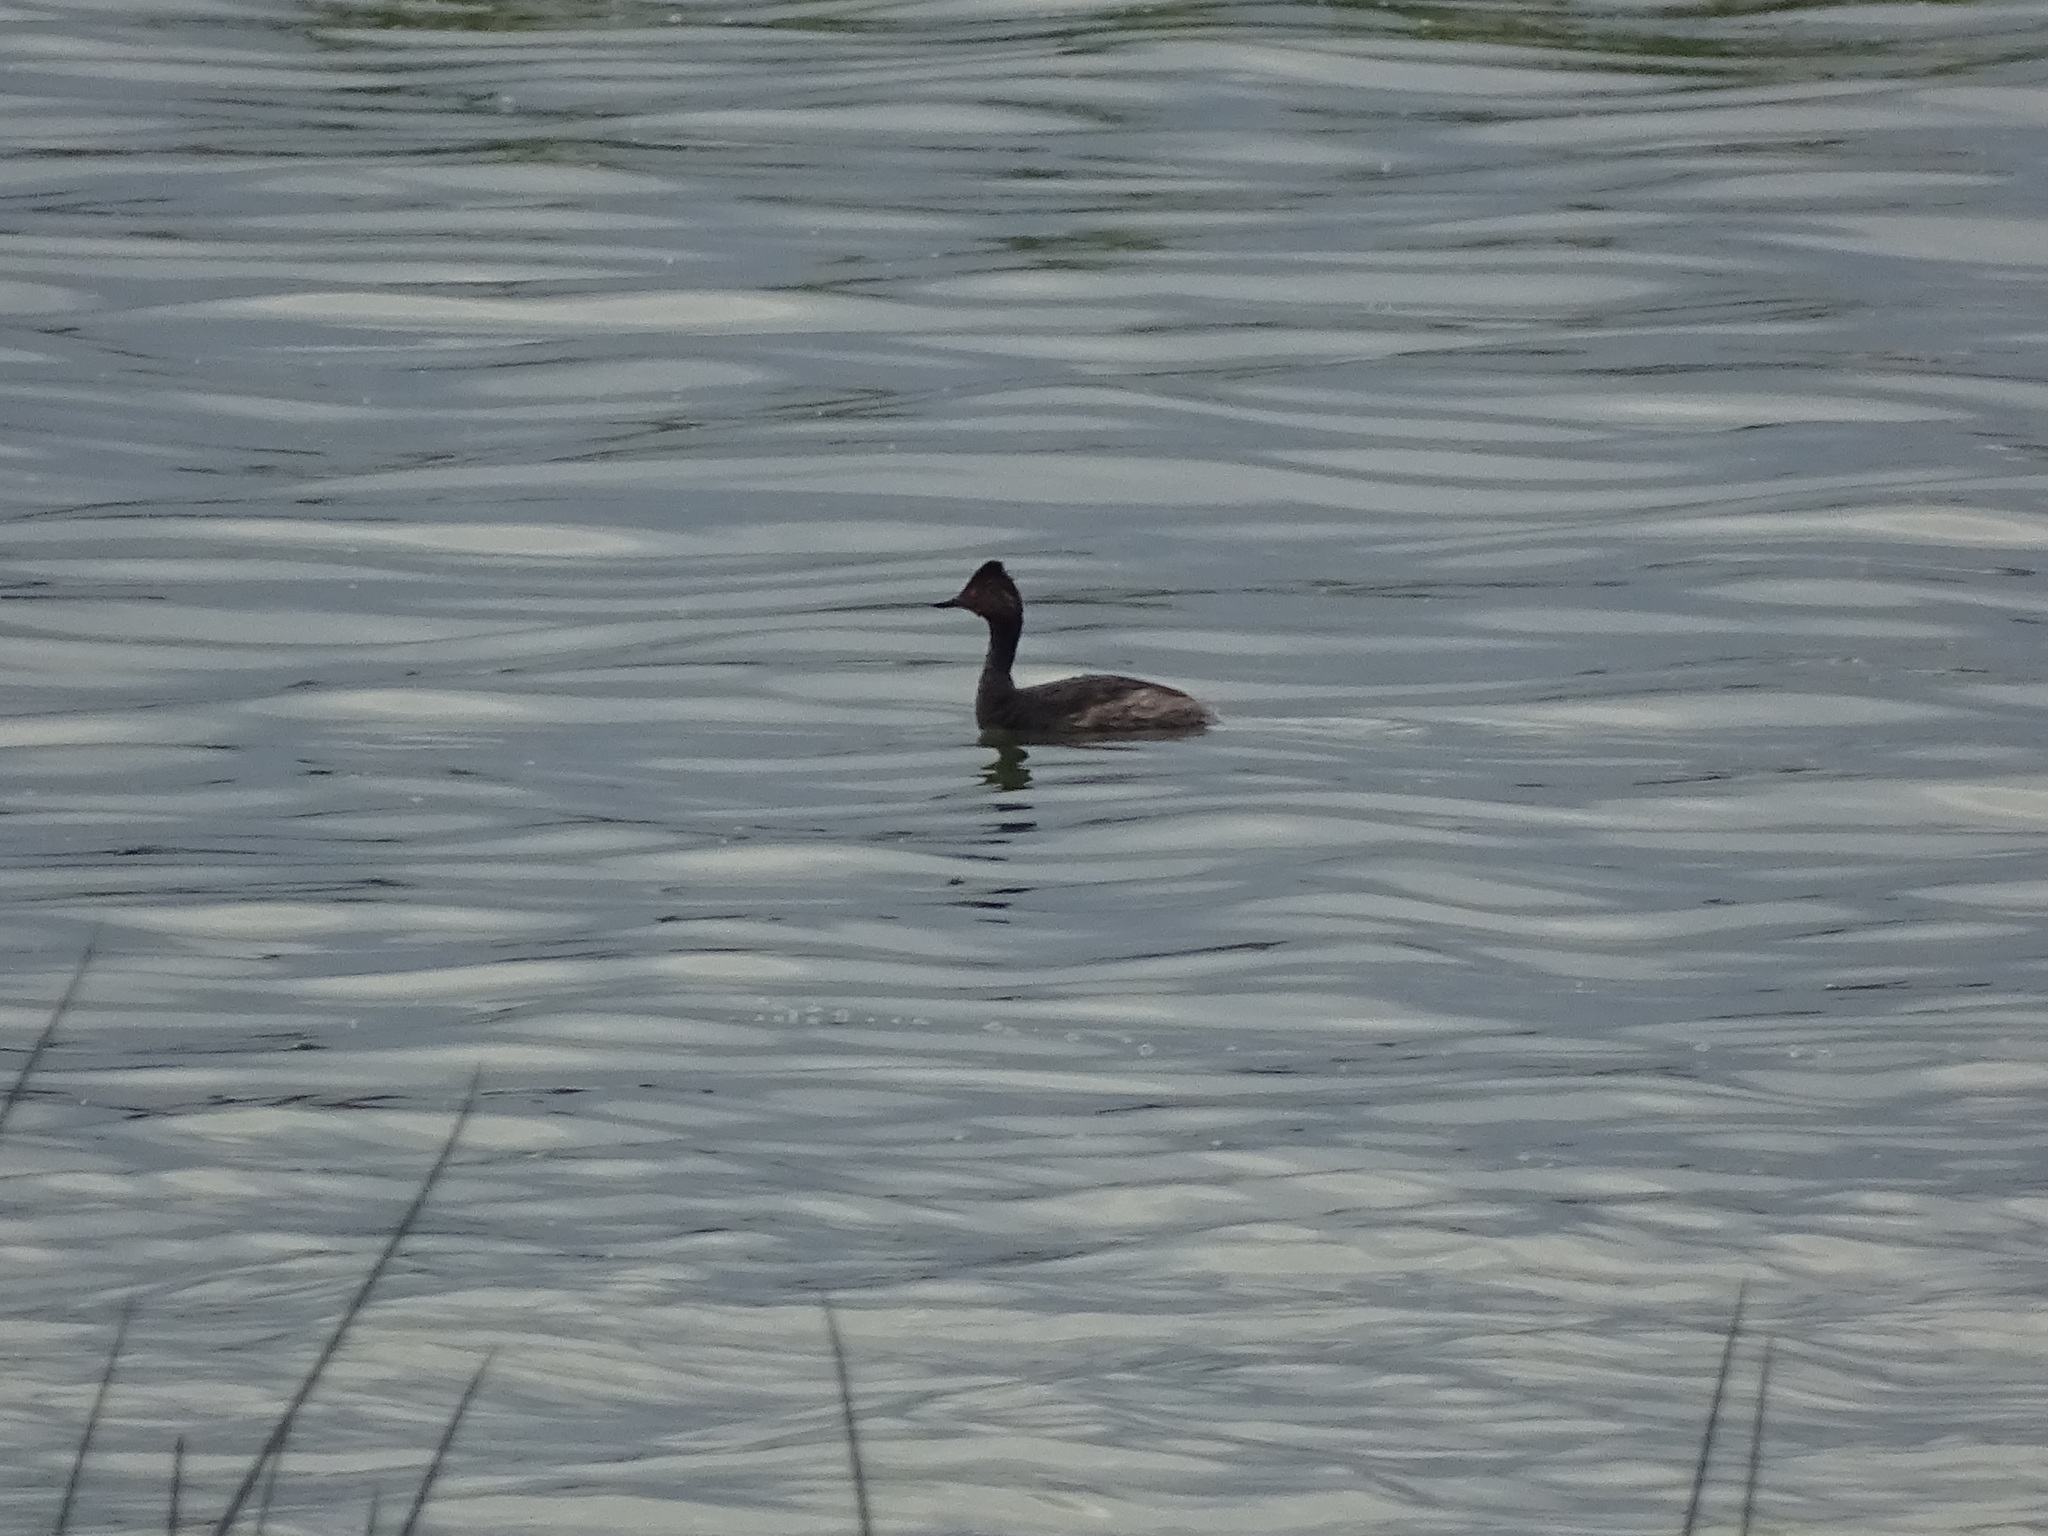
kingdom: Animalia
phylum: Chordata
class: Aves
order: Podicipediformes
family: Podicipedidae
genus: Podiceps
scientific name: Podiceps nigricollis
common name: Black-necked grebe
